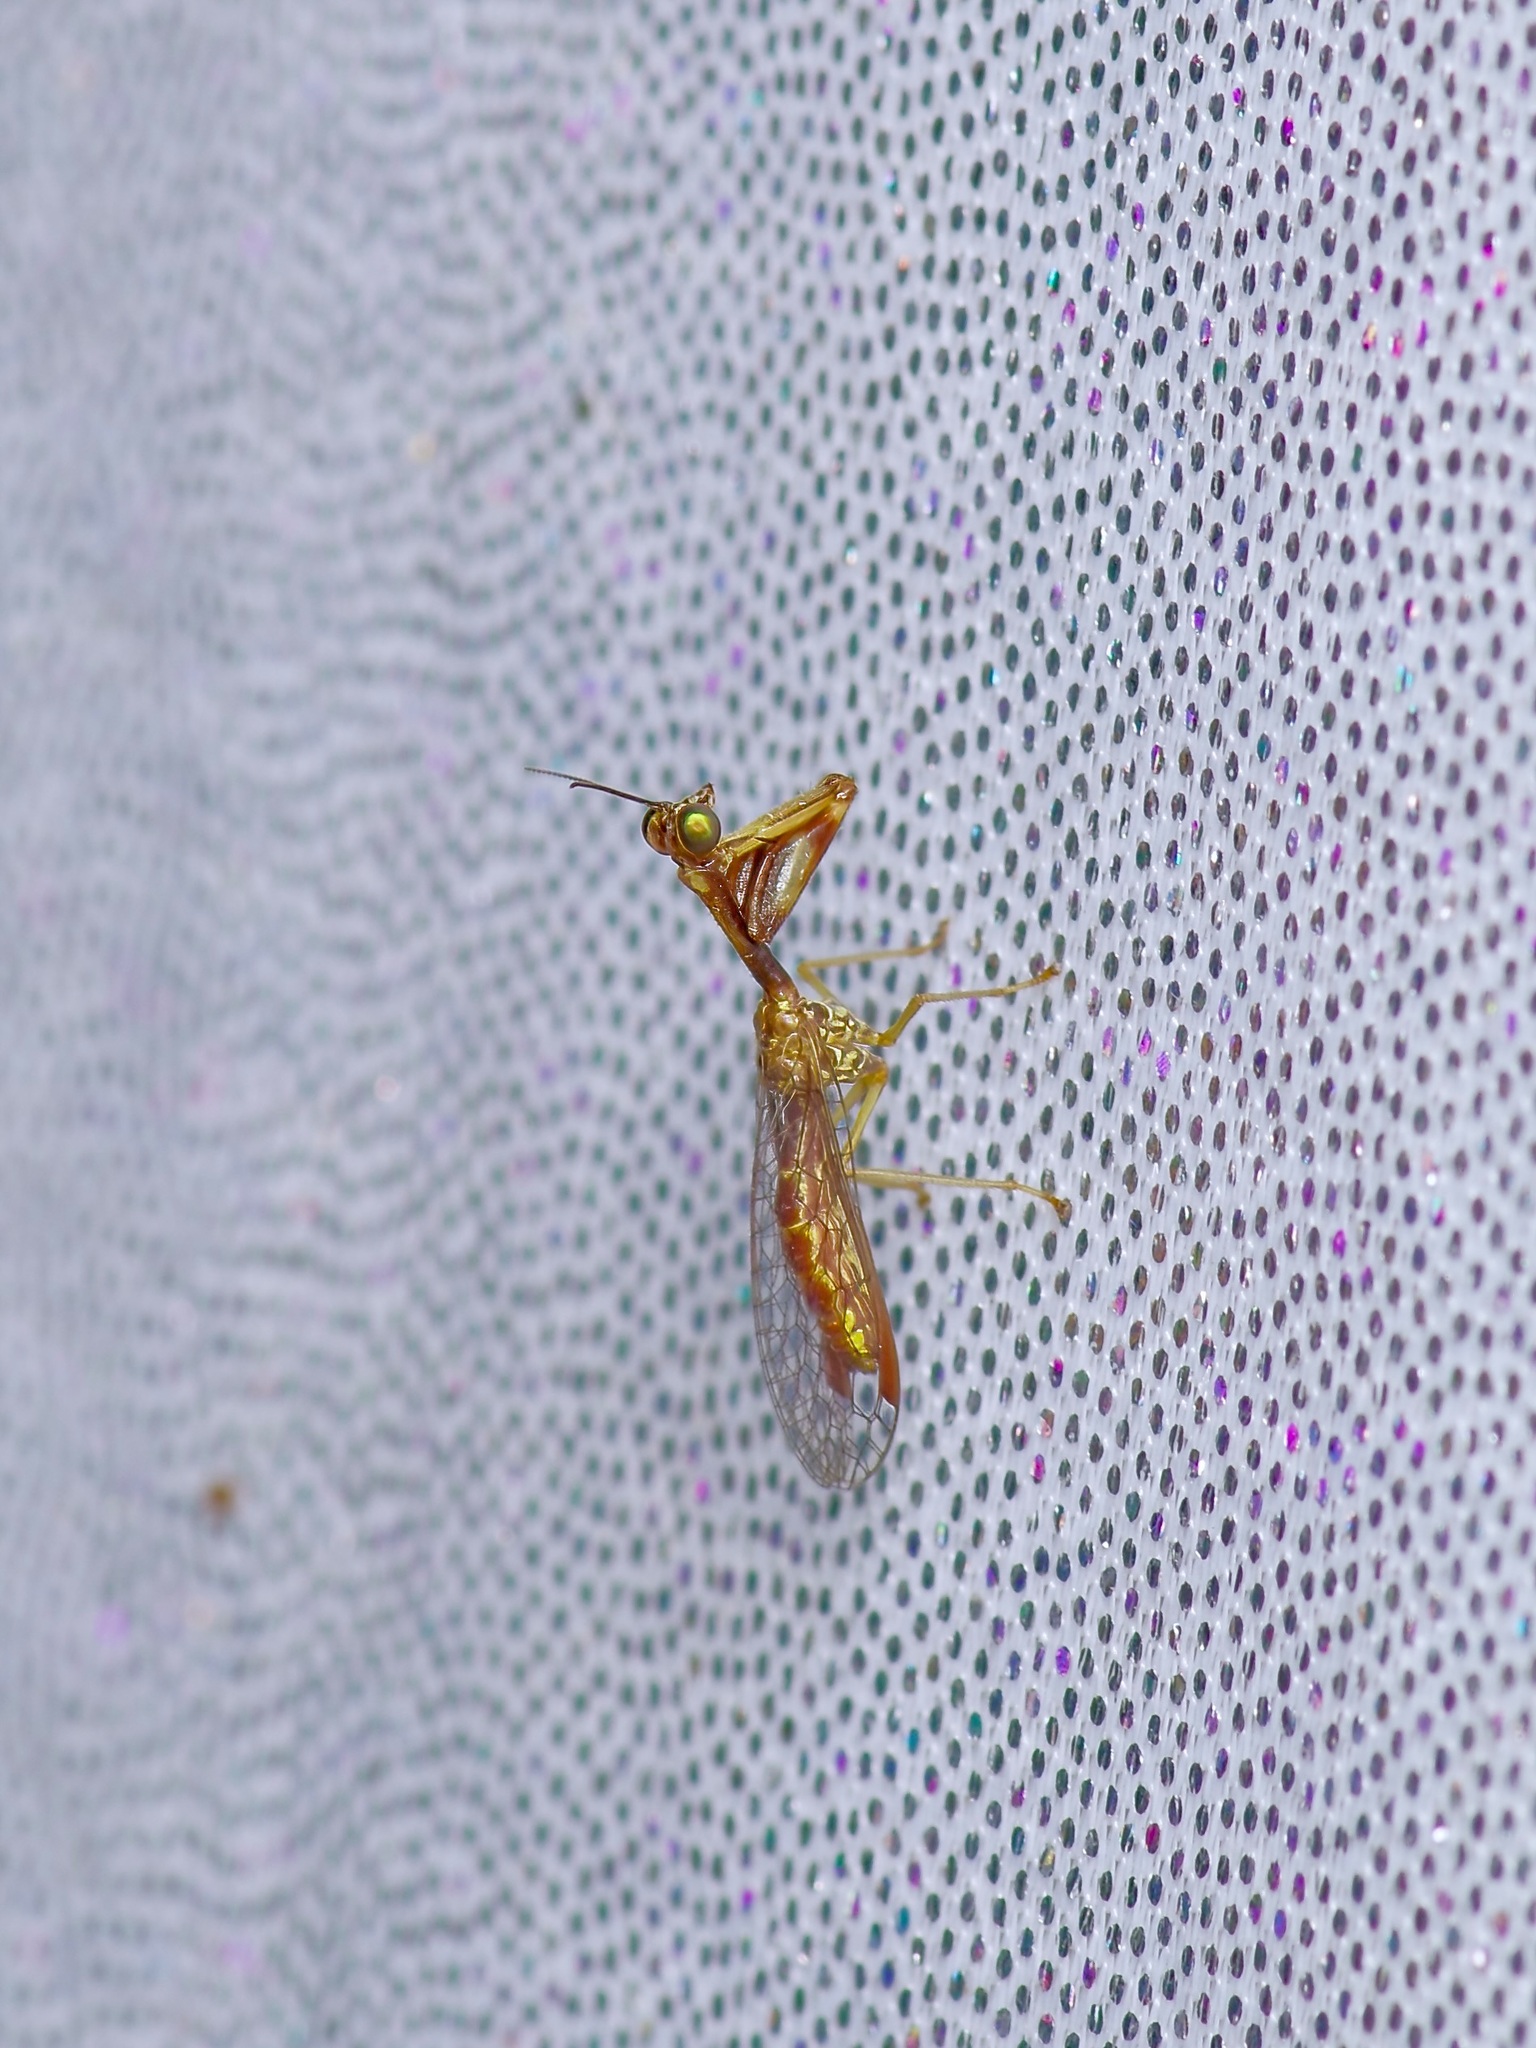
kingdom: Animalia
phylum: Arthropoda
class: Insecta
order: Neuroptera
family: Mantispidae
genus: Leptomantispa
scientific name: Leptomantispa pulchella
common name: Stevens's mantidfly
